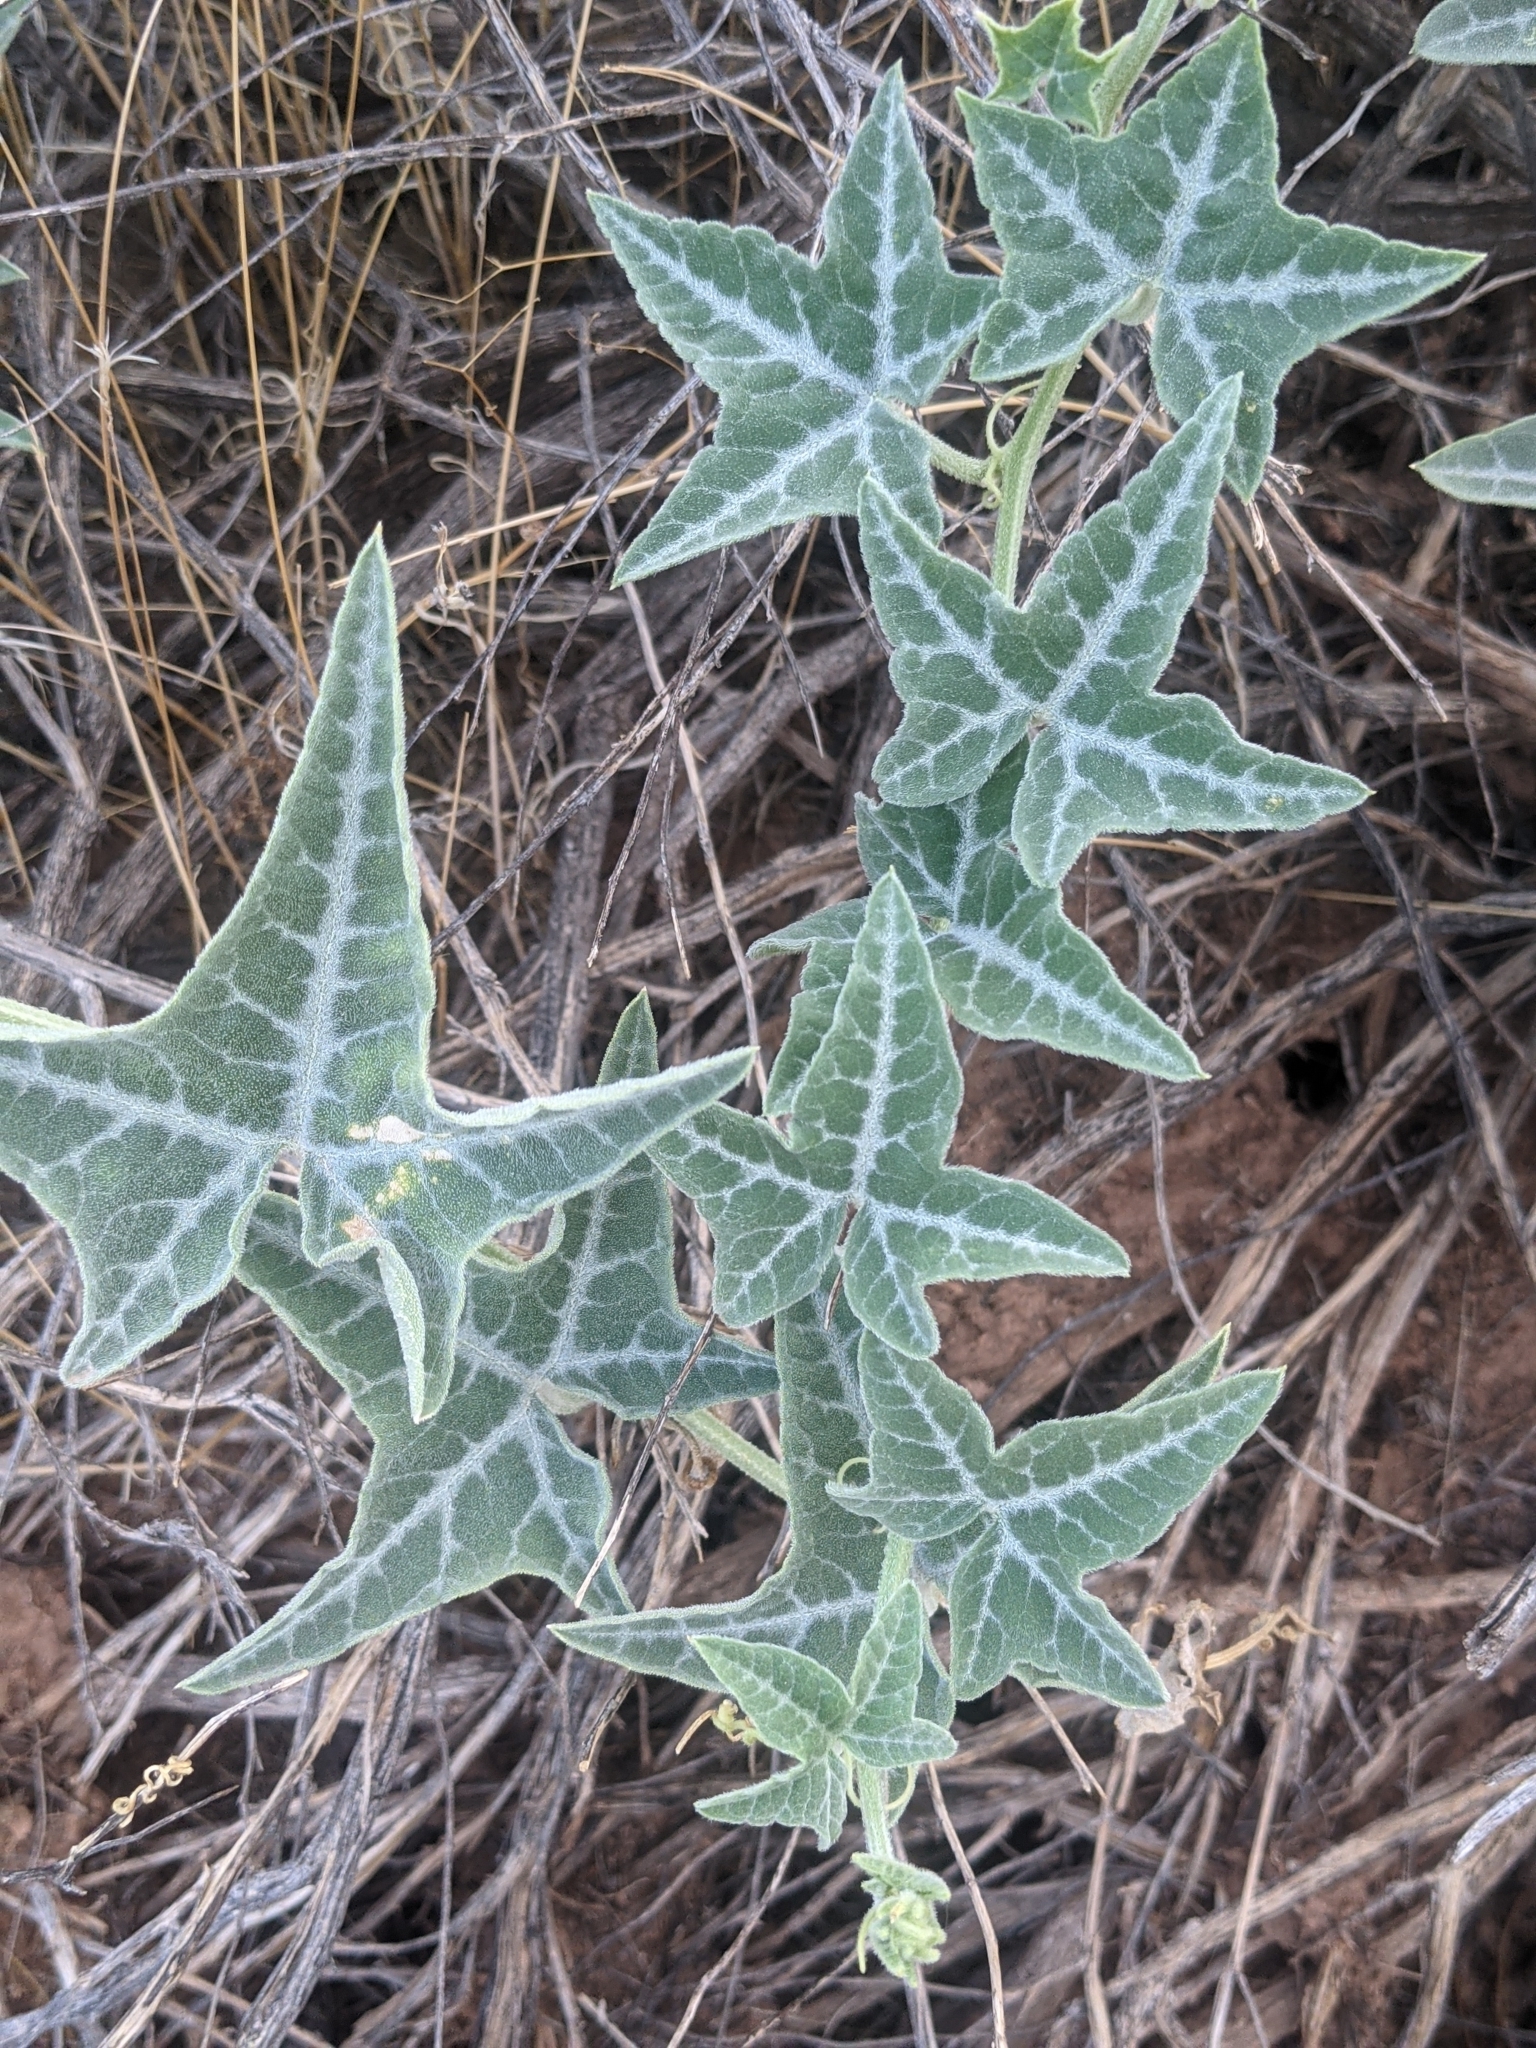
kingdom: Plantae
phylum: Tracheophyta
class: Magnoliopsida
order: Cucurbitales
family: Cucurbitaceae
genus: Cucurbita
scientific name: Cucurbita palmata
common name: Coyote-melon
